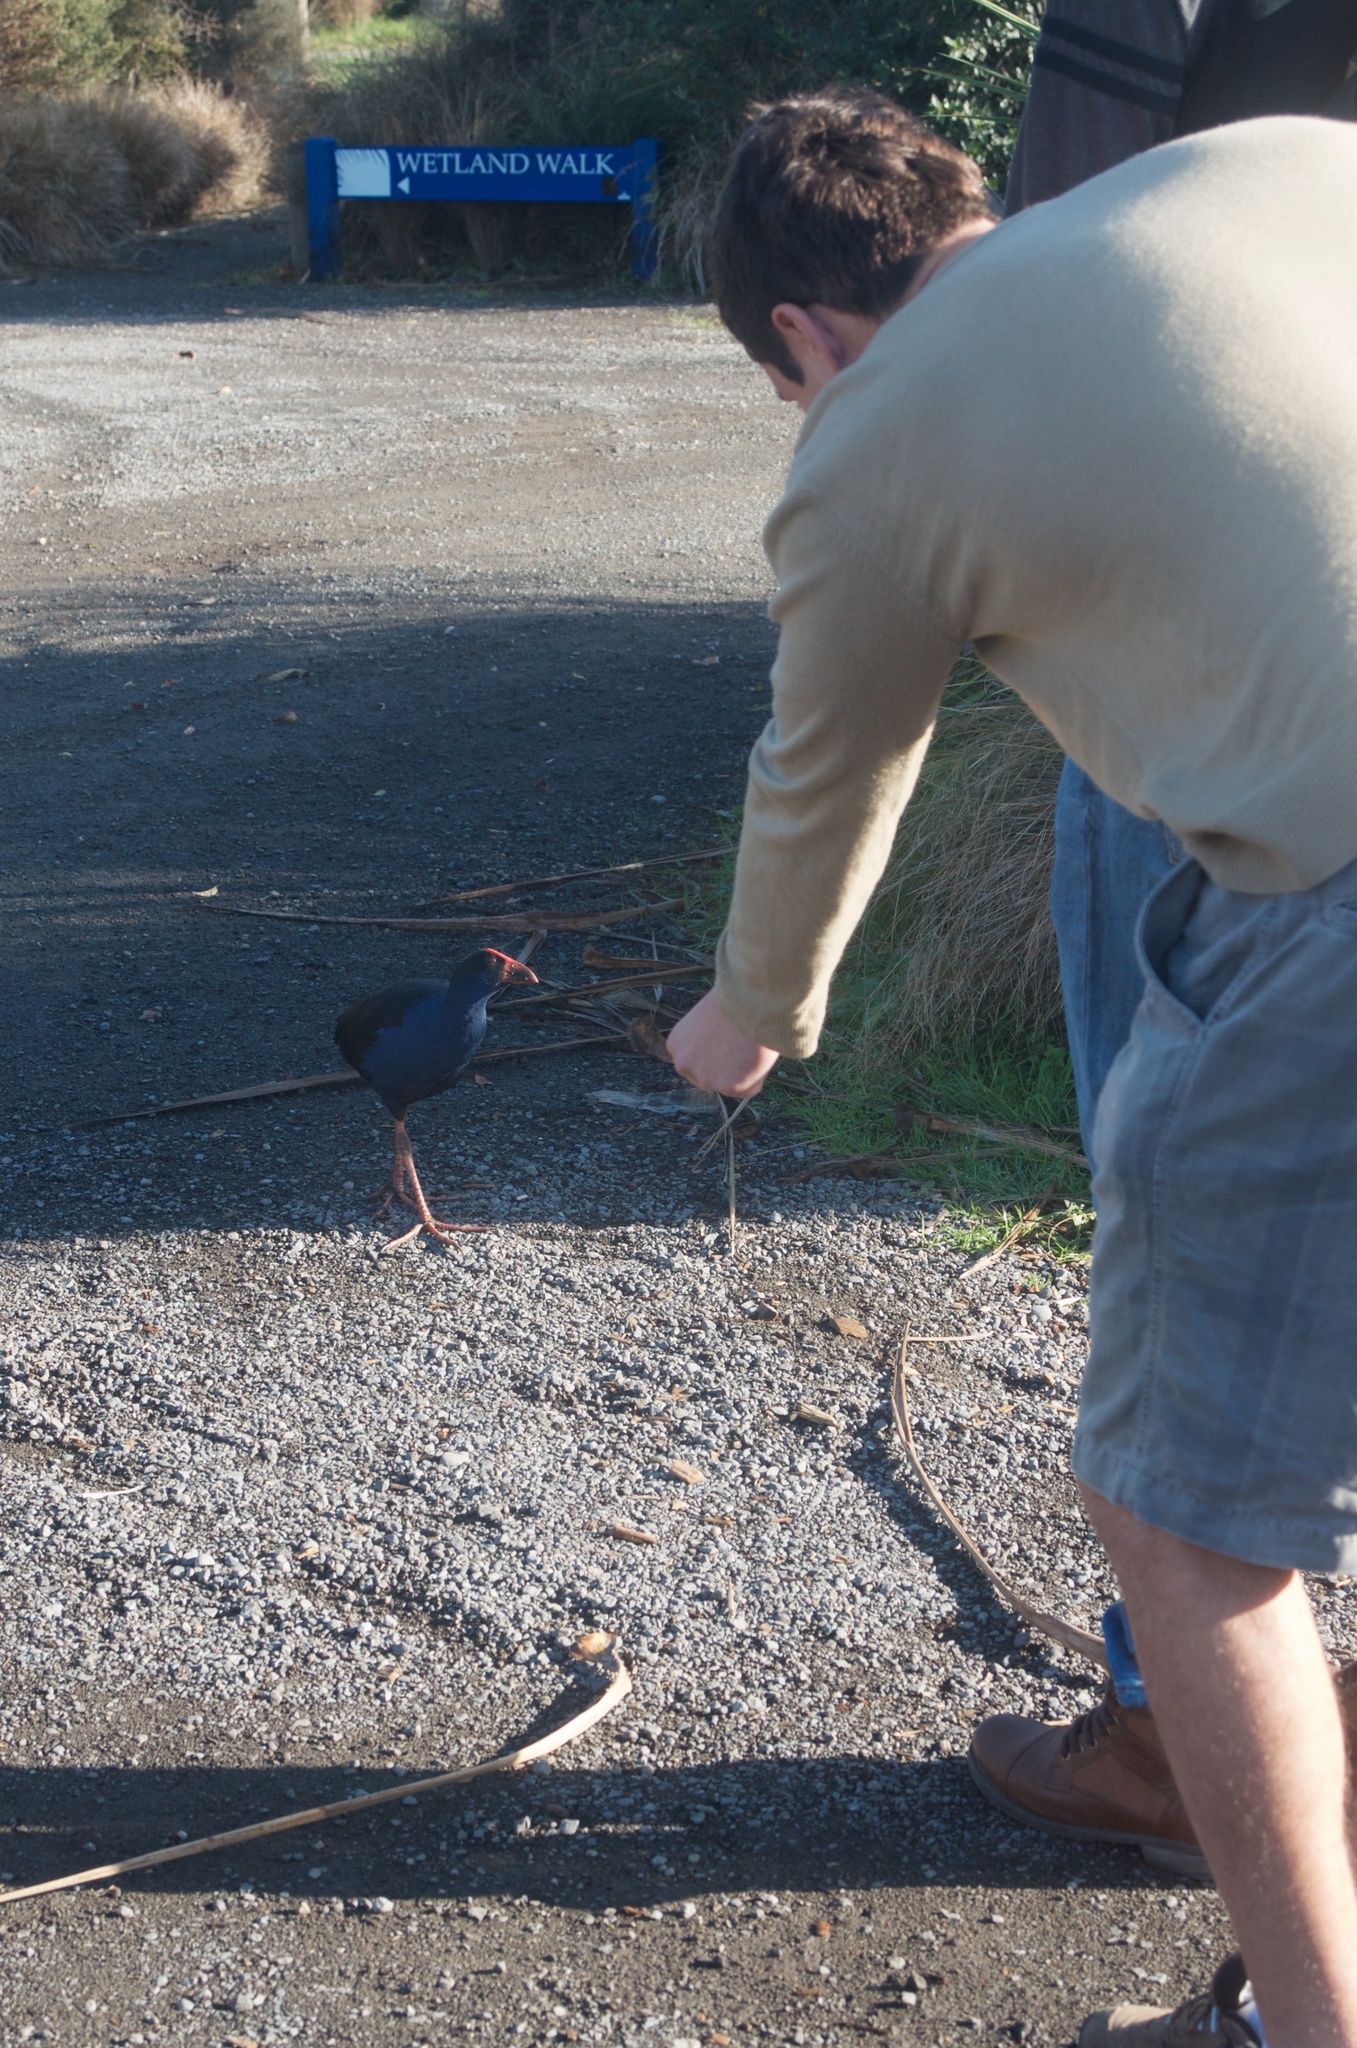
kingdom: Animalia
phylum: Chordata
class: Aves
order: Gruiformes
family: Rallidae
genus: Porphyrio
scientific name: Porphyrio melanotus
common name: Australasian swamphen
